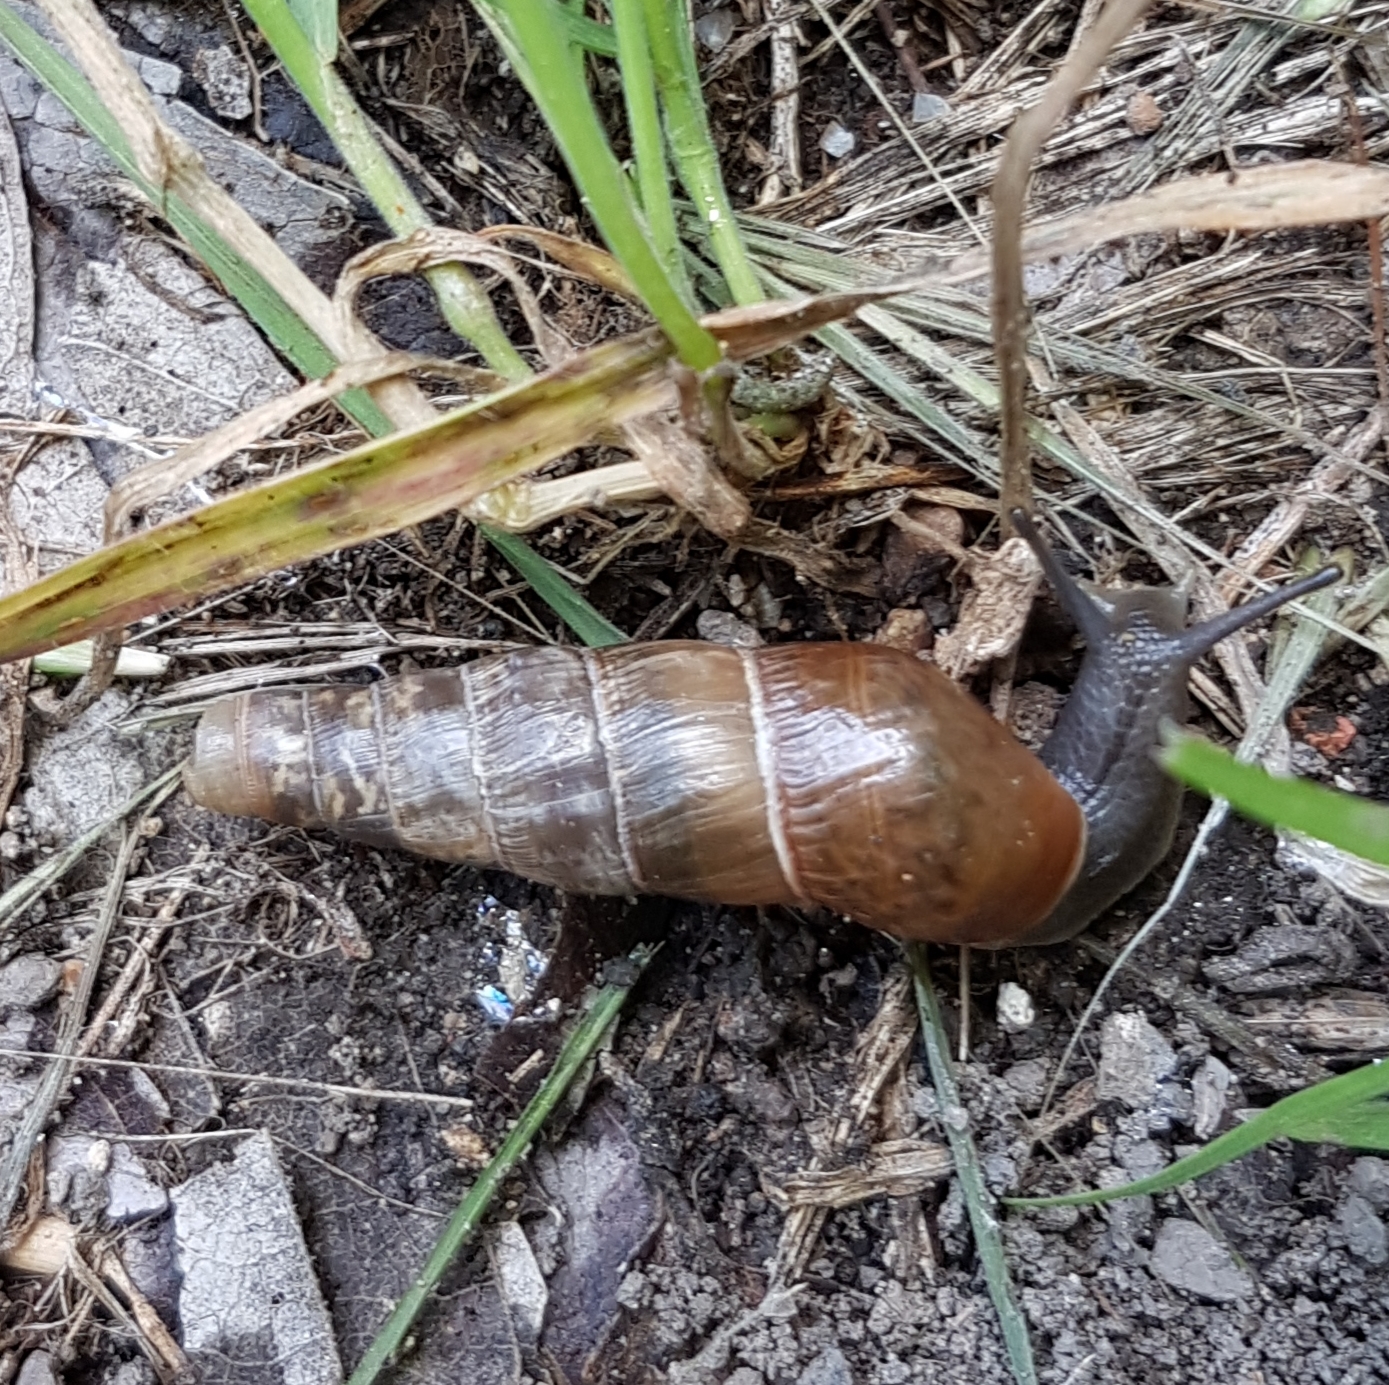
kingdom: Animalia
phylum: Mollusca
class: Gastropoda
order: Stylommatophora
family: Achatinidae
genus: Rumina
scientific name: Rumina decollata
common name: Decollate snail
